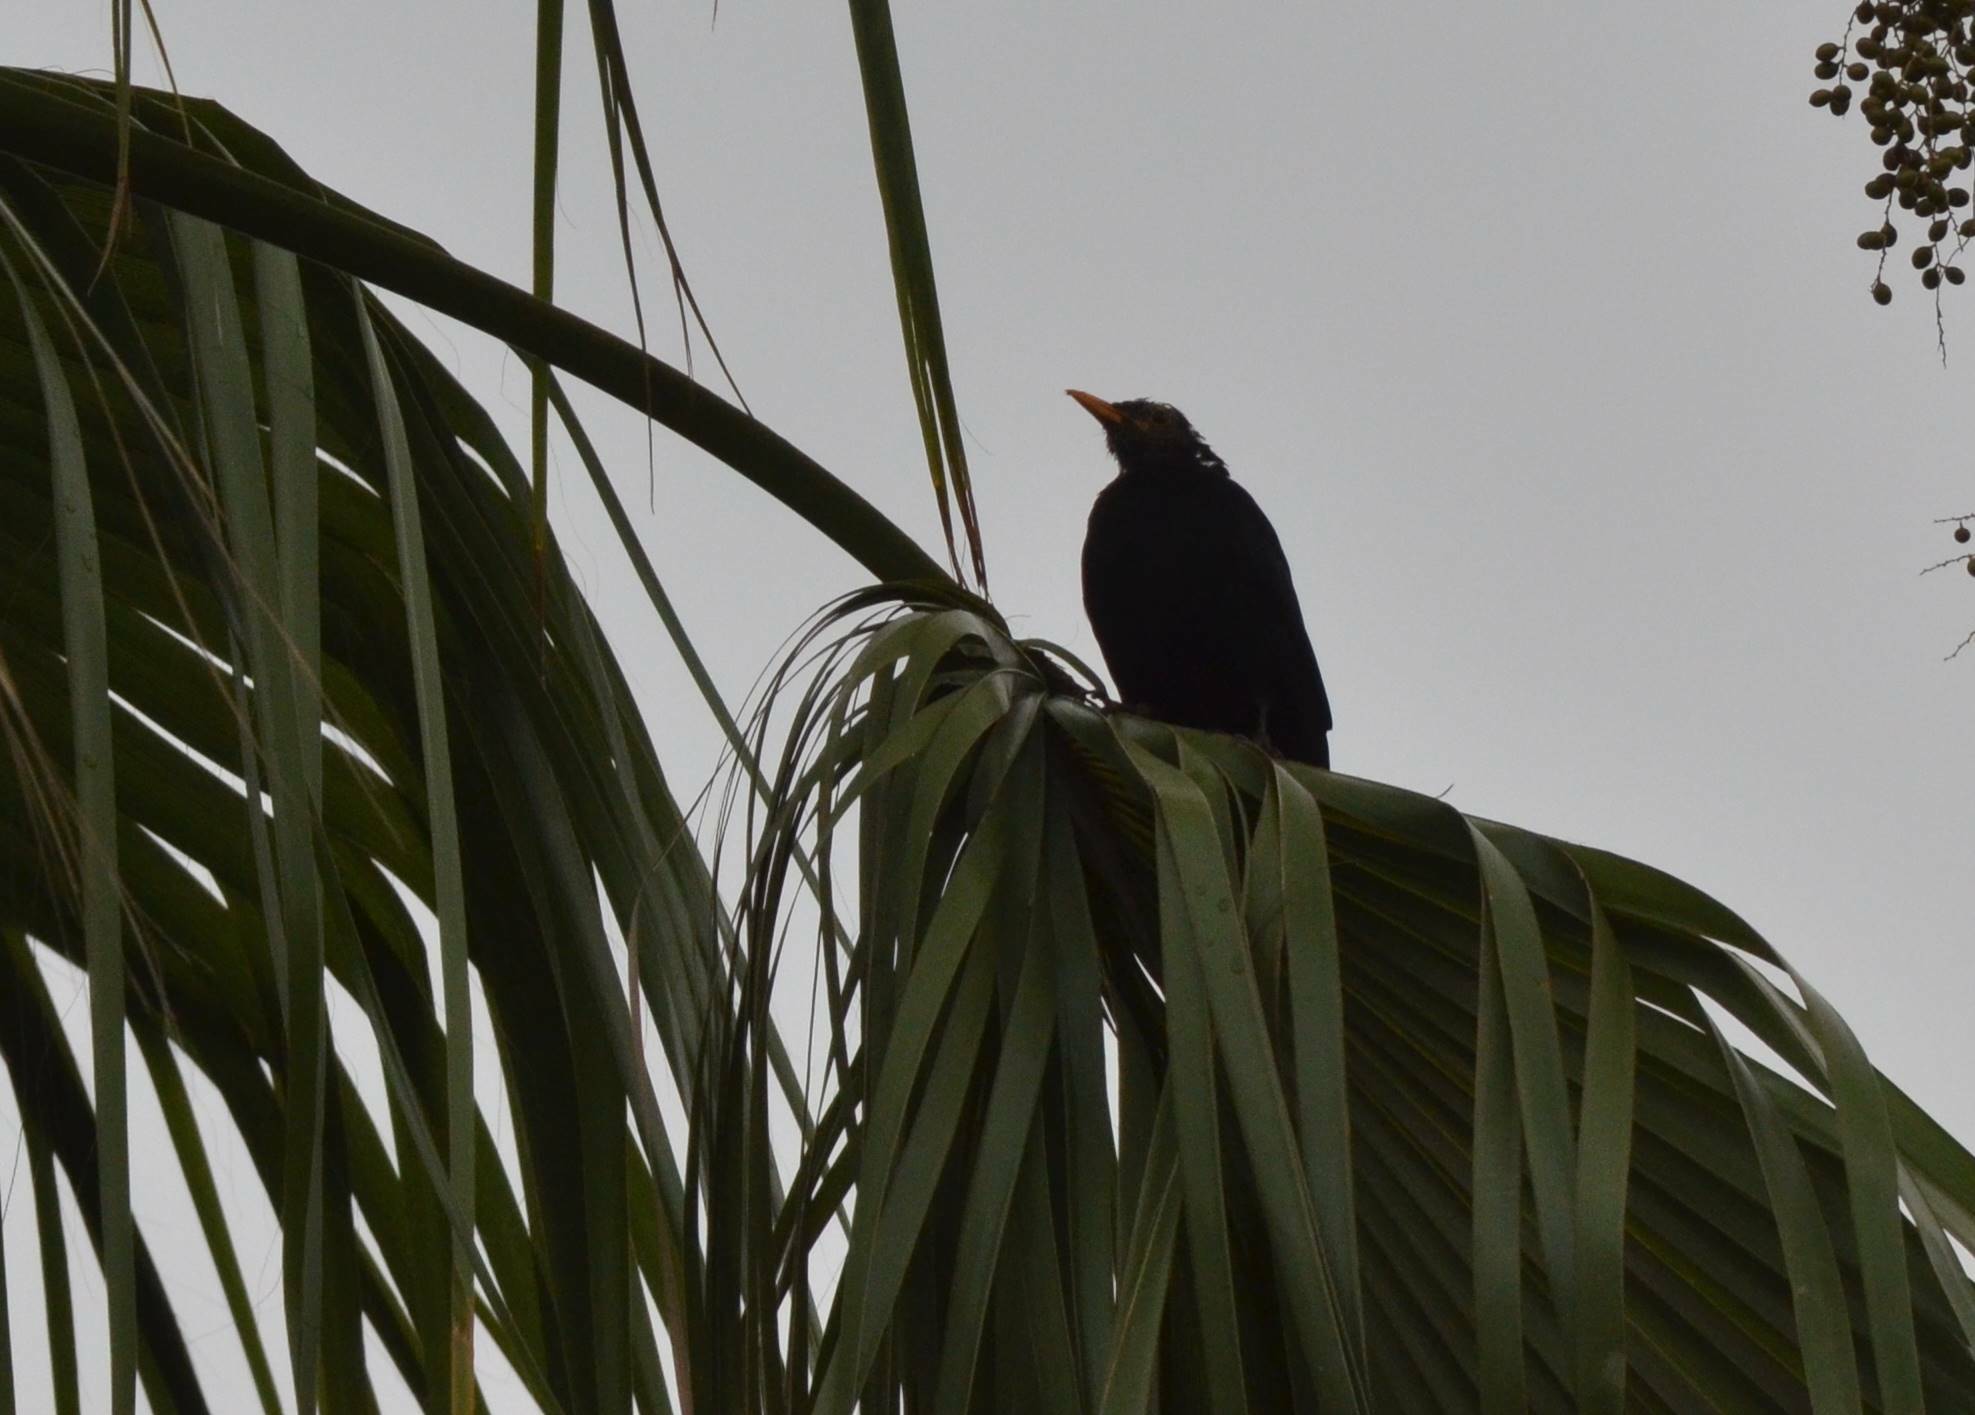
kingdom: Animalia
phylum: Chordata
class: Aves
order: Passeriformes
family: Turdidae
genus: Turdus
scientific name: Turdus merula
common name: Common blackbird
